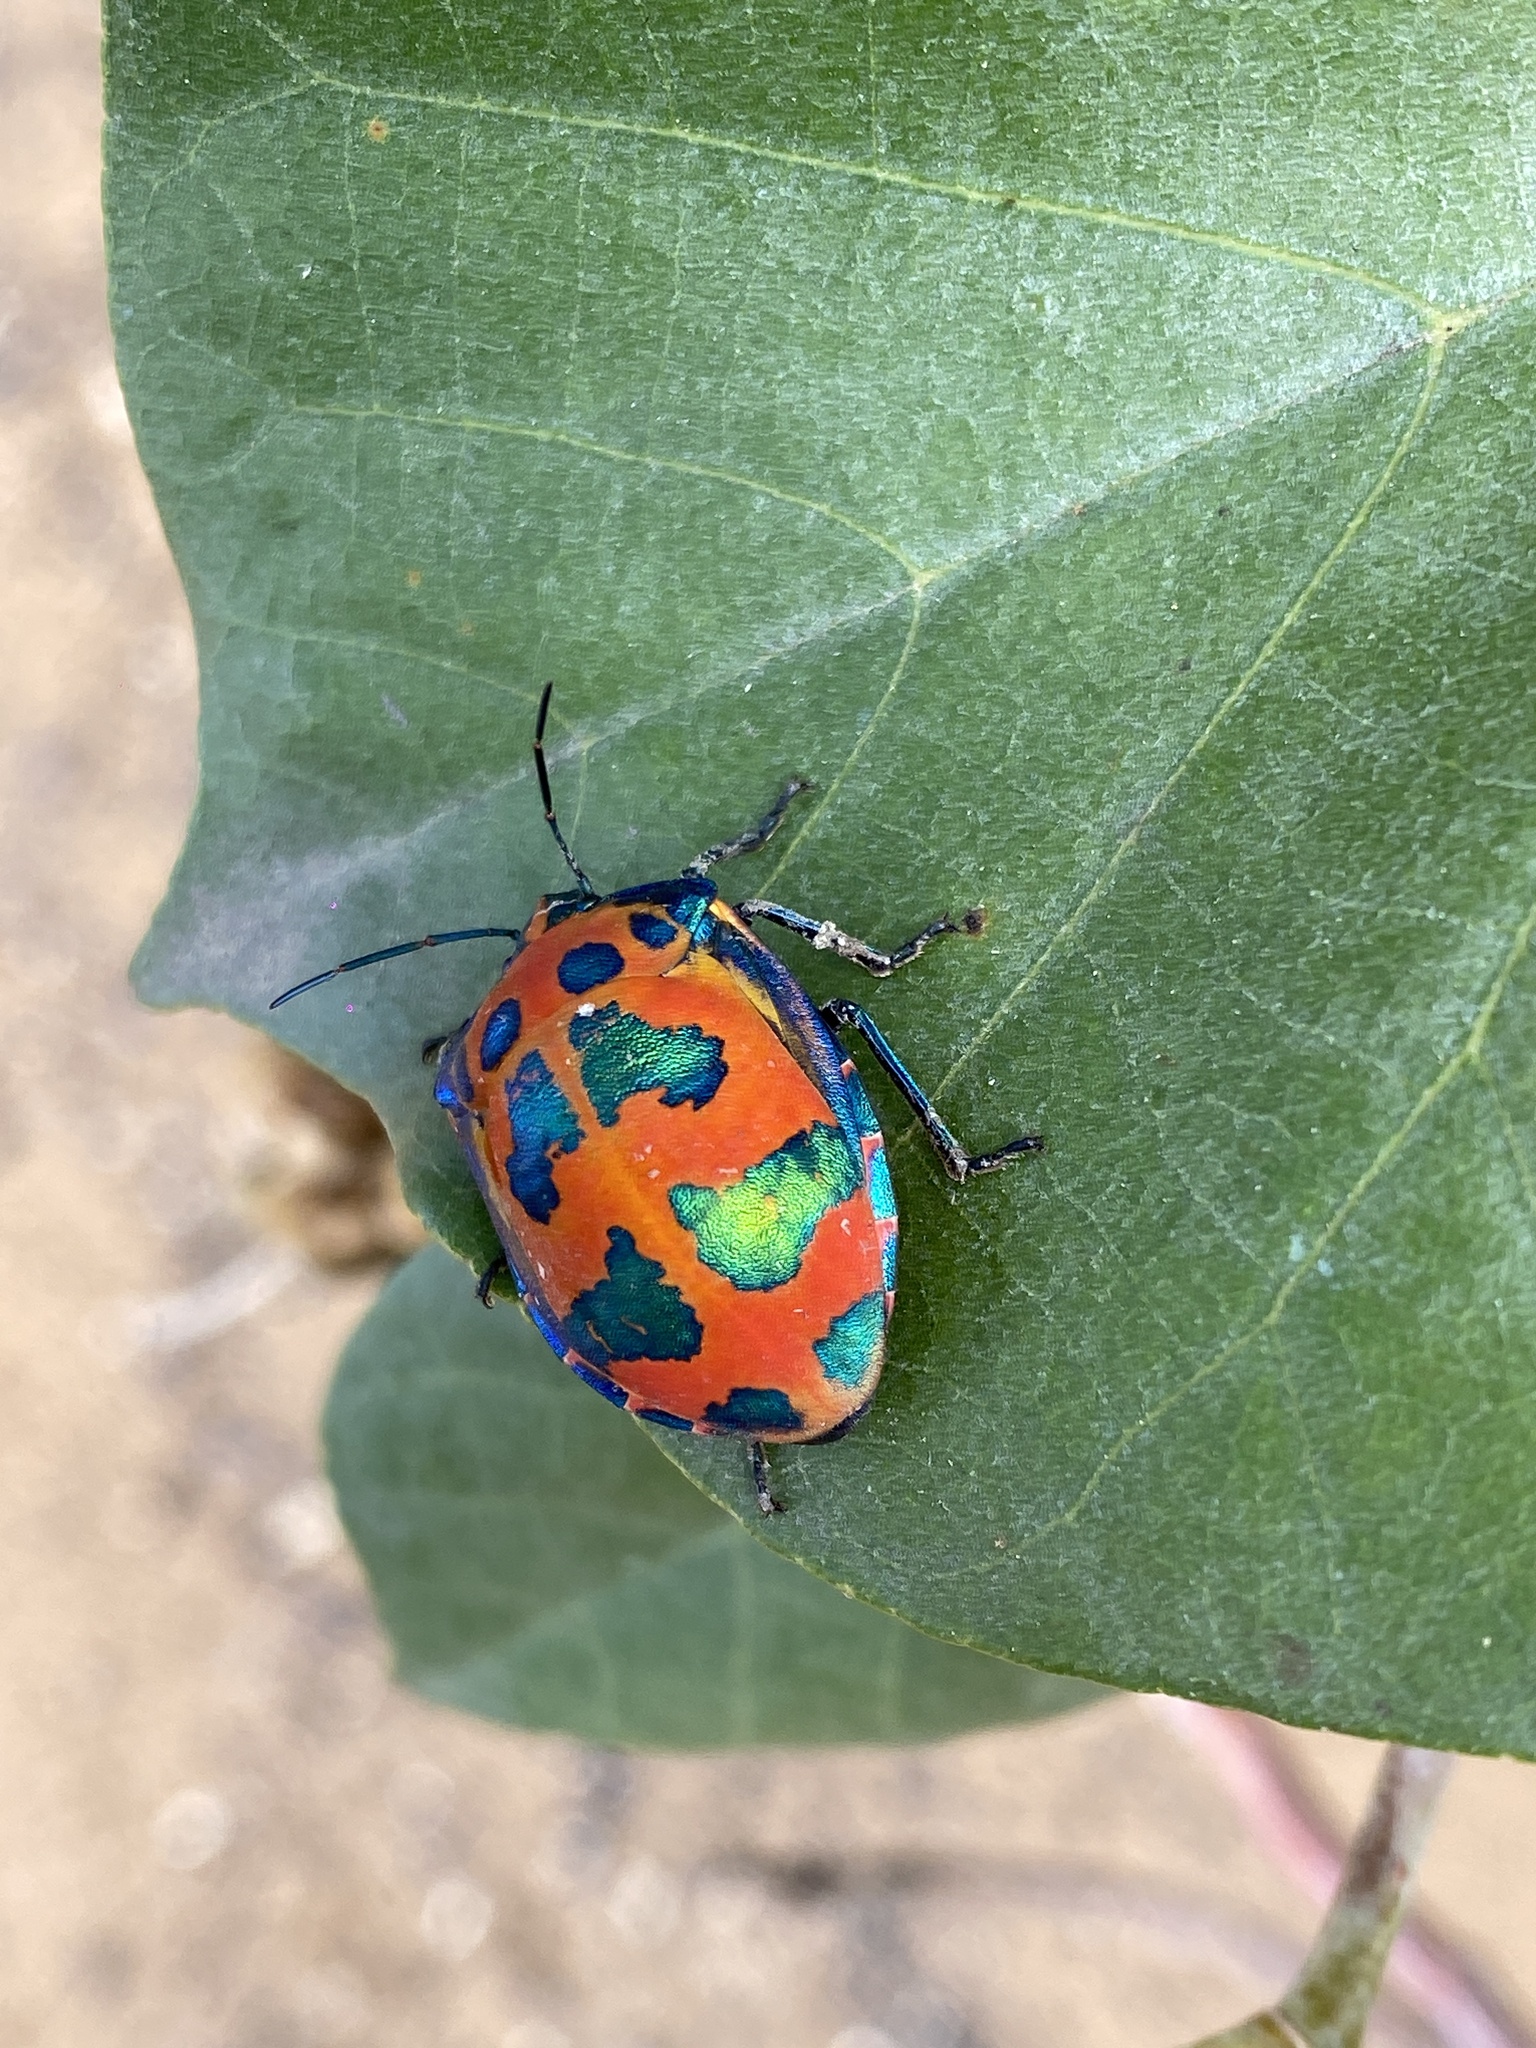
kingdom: Animalia
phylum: Arthropoda
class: Insecta
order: Hemiptera
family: Scutelleridae
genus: Tectocoris
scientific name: Tectocoris diophthalmus
